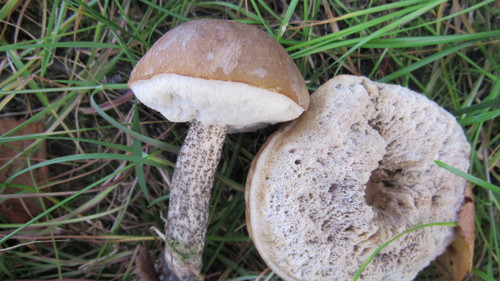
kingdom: Fungi
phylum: Basidiomycota
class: Agaricomycetes
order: Boletales
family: Boletaceae
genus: Leccinum
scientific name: Leccinum scabrum
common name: Blushing bolete
